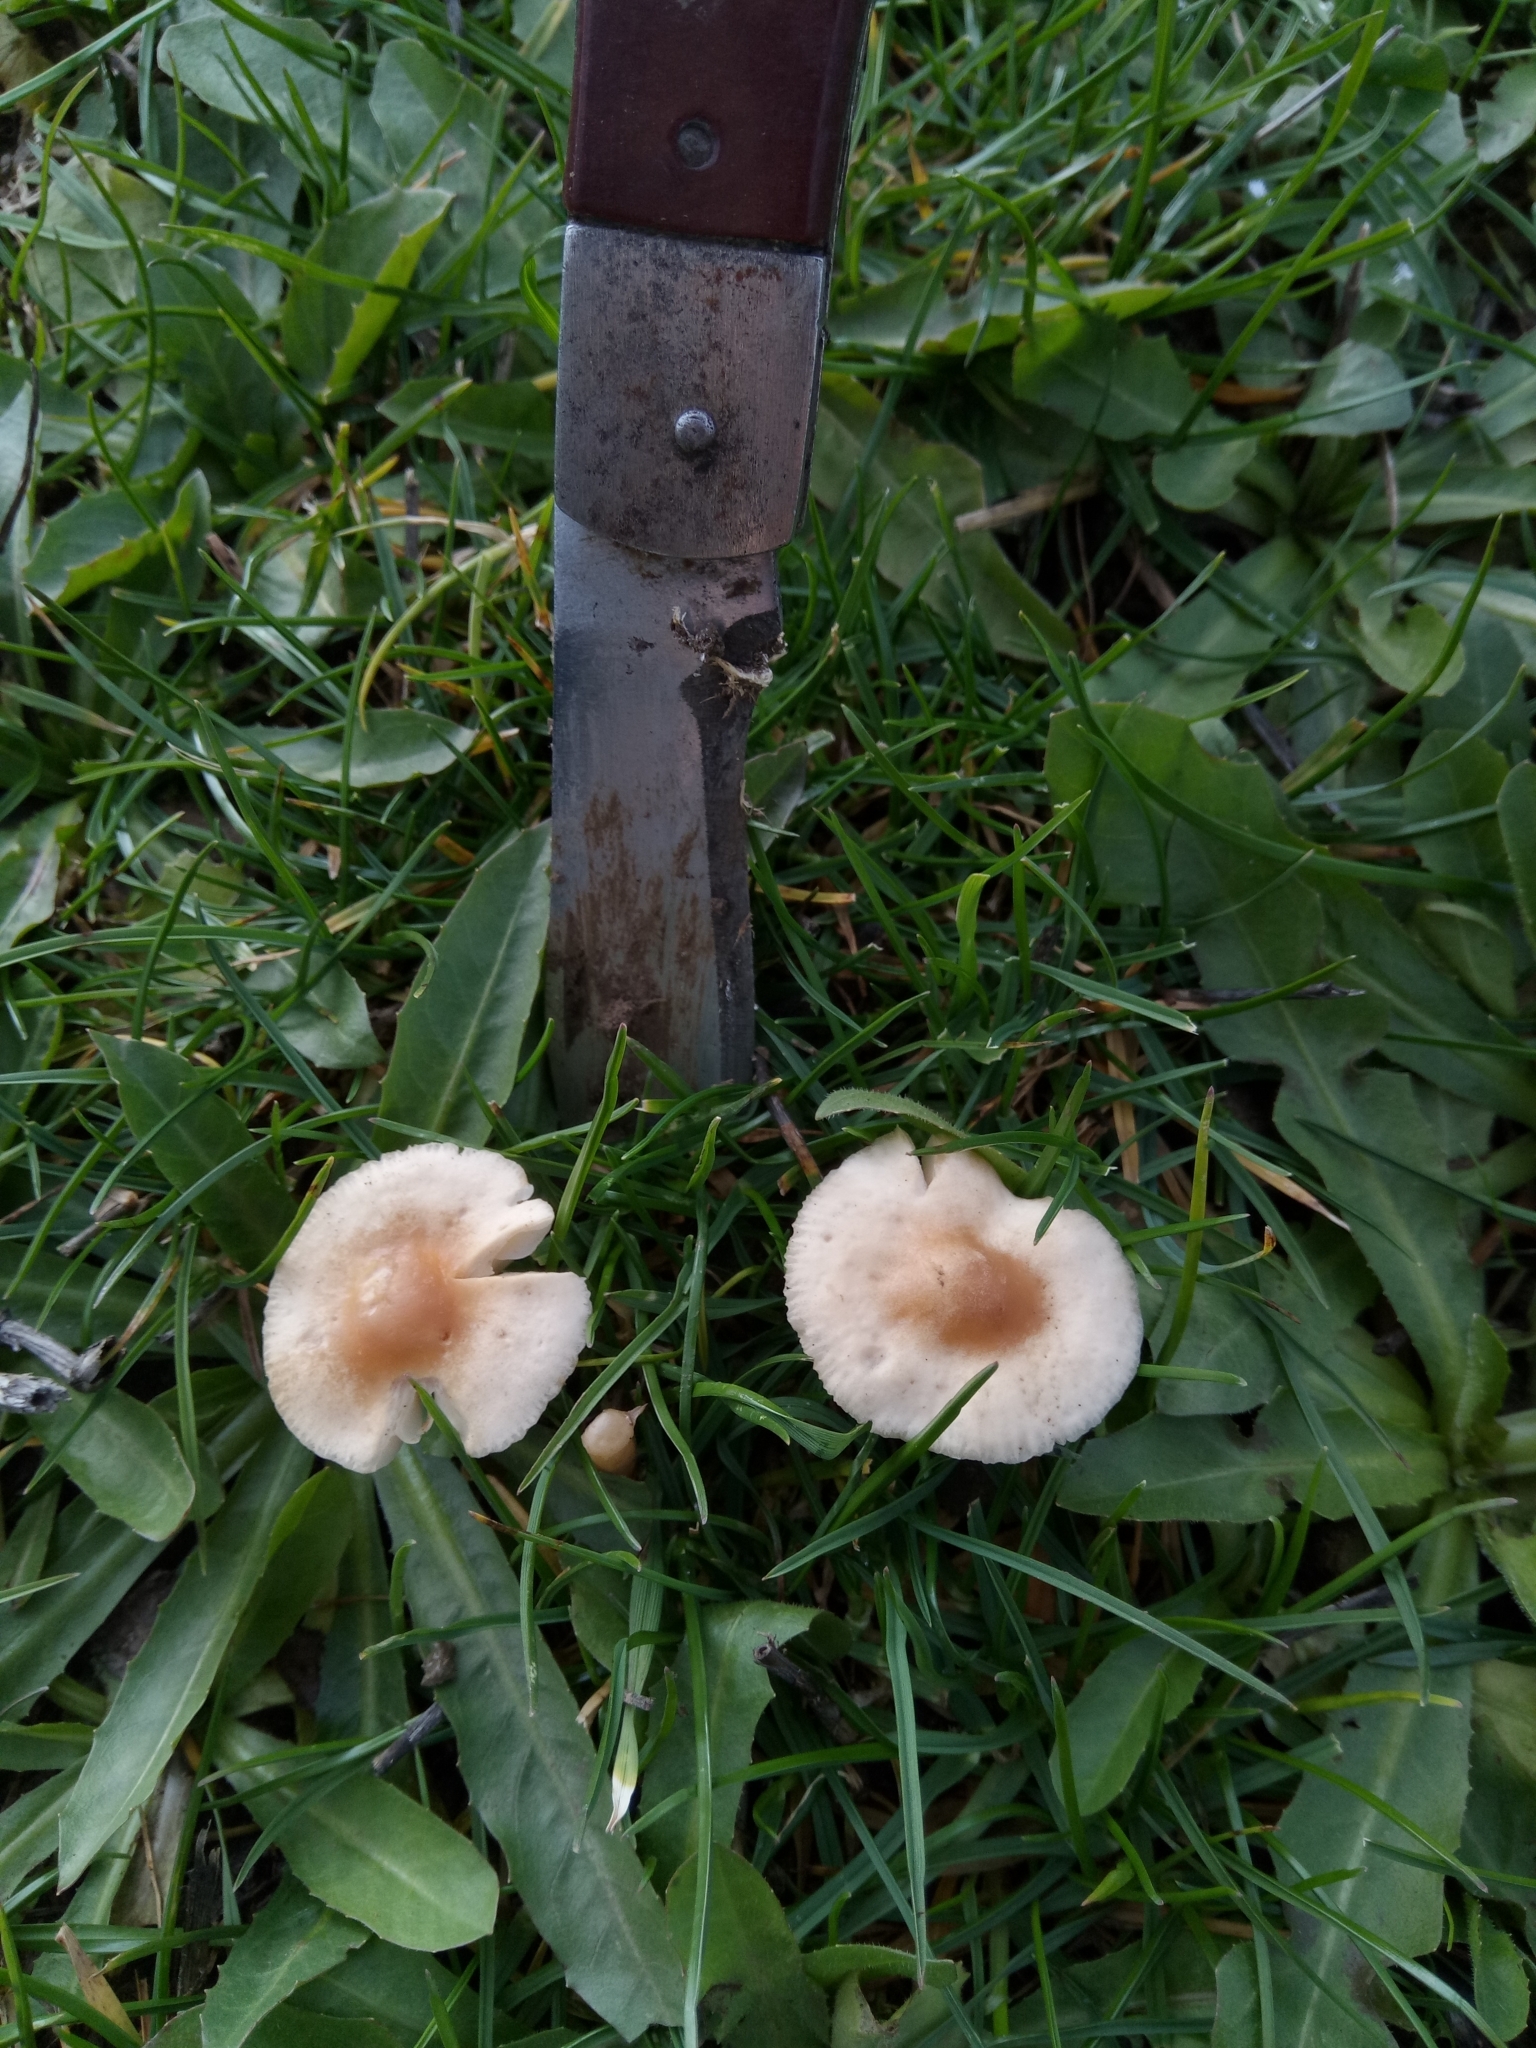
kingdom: Fungi
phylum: Basidiomycota
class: Agaricomycetes
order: Agaricales
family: Marasmiaceae
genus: Marasmius
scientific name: Marasmius oreades
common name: Fairy ring champignon
